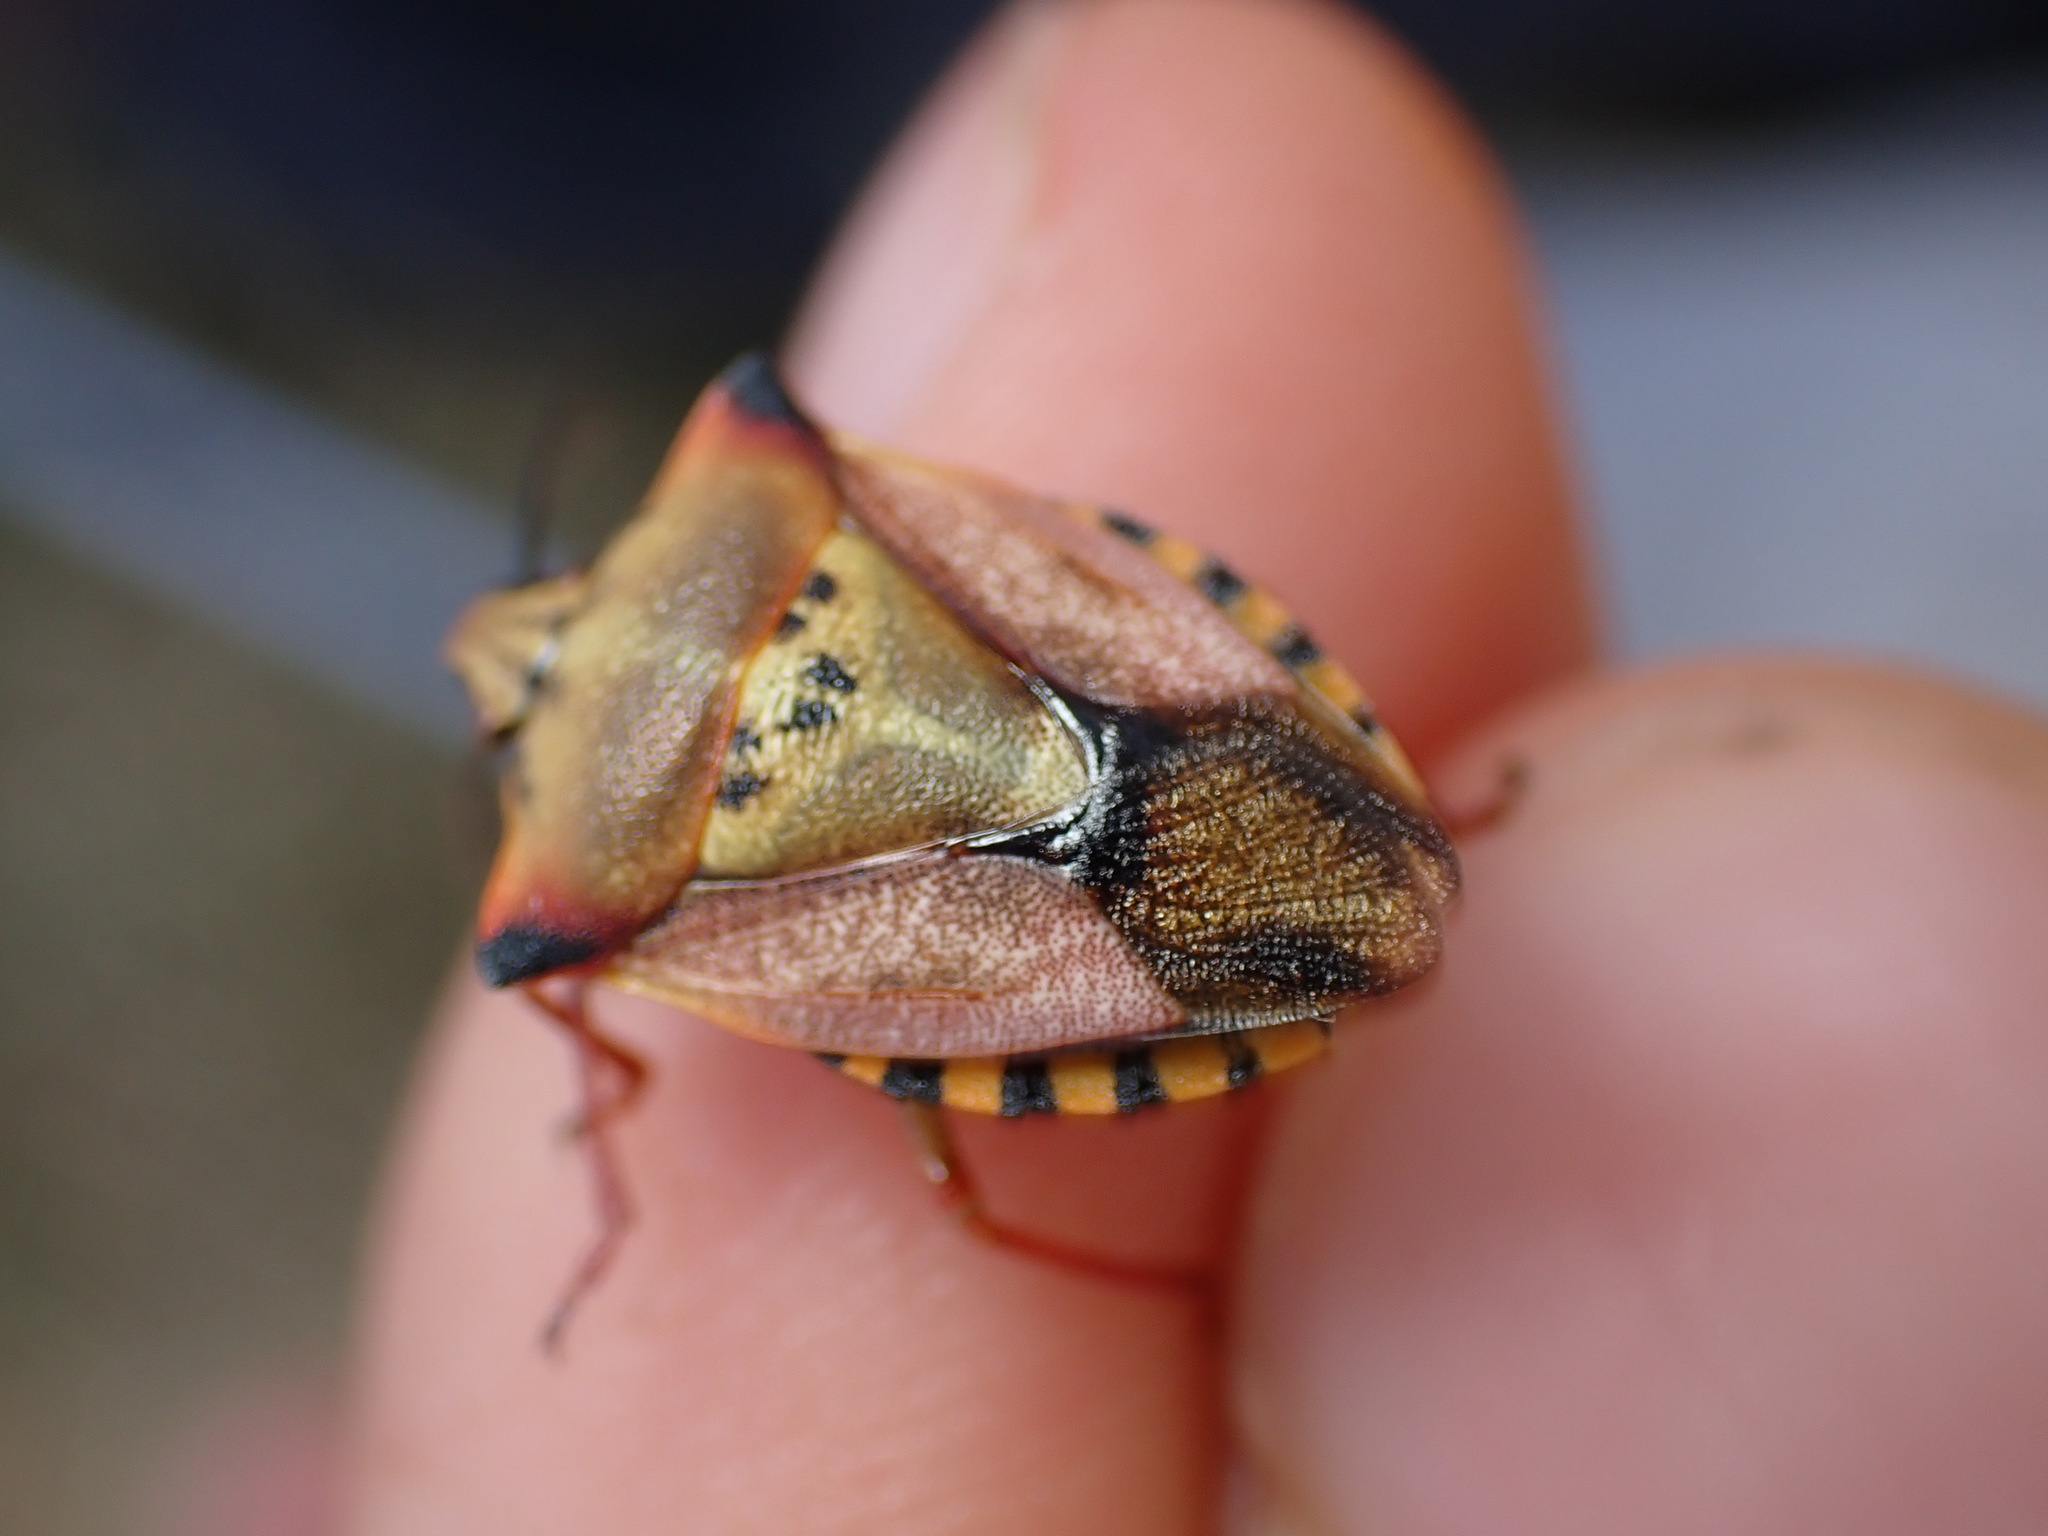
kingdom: Animalia
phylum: Arthropoda
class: Insecta
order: Hemiptera
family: Pentatomidae
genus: Carpocoris
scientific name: Carpocoris mediterraneus
